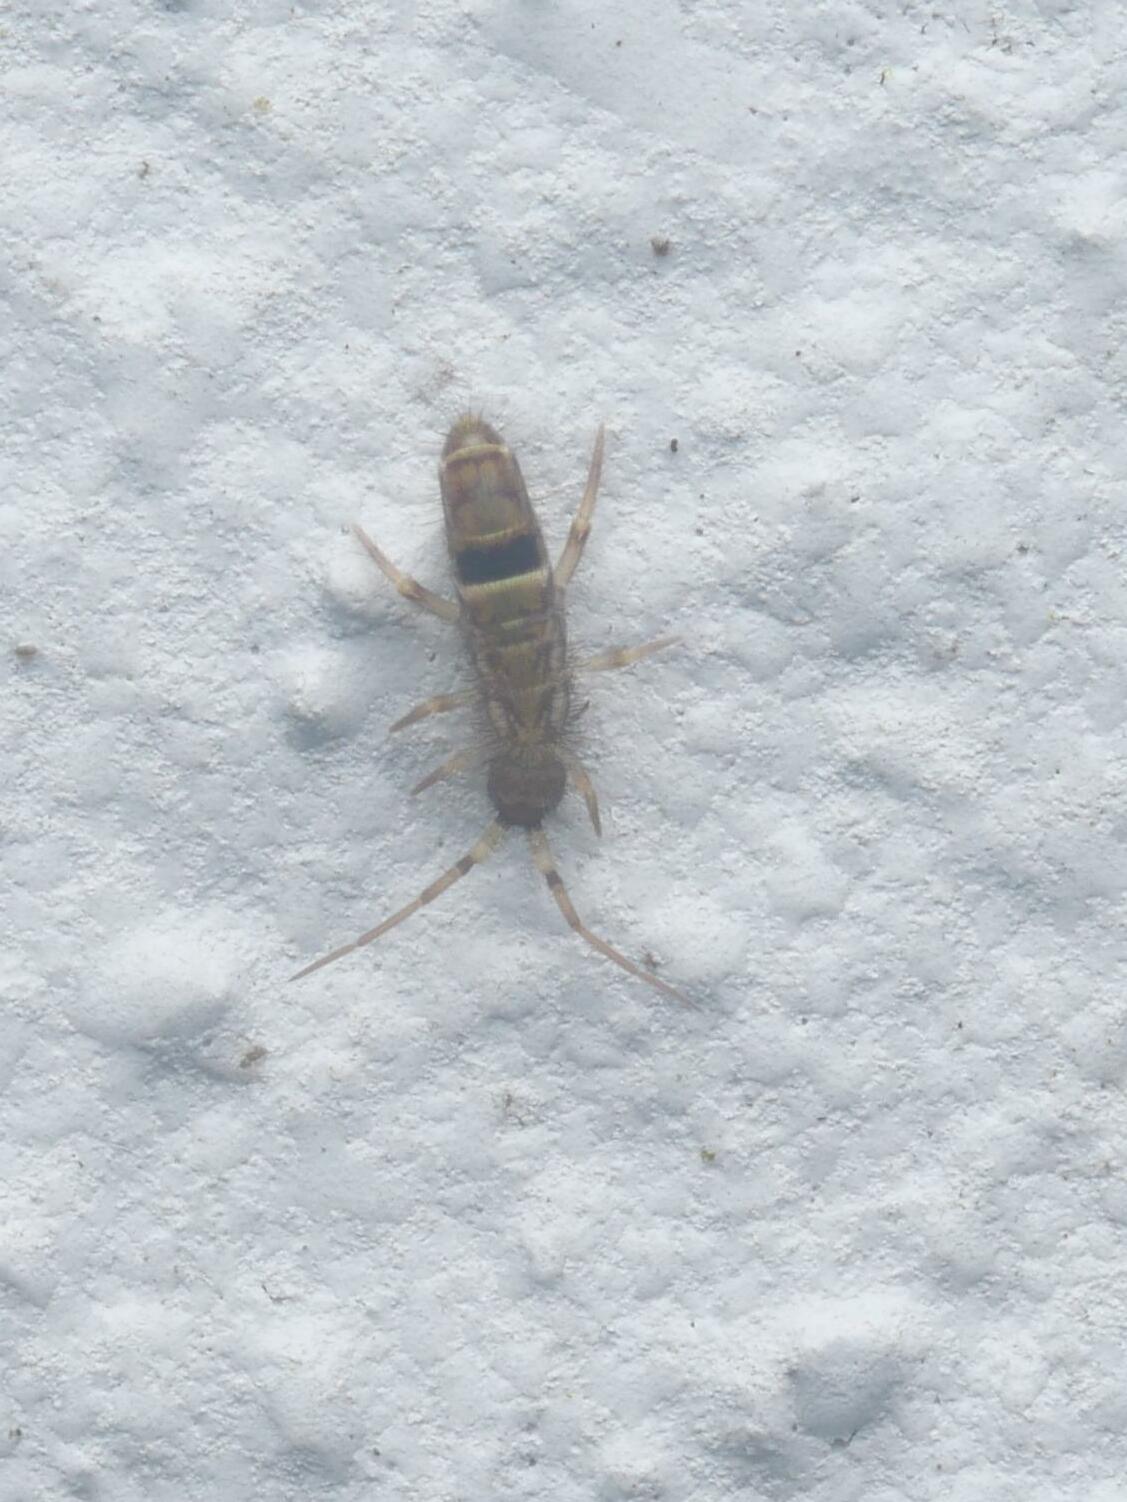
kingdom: Animalia
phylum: Arthropoda
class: Collembola
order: Entomobryomorpha
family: Orchesellidae
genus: Orchesella
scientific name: Orchesella cincta
